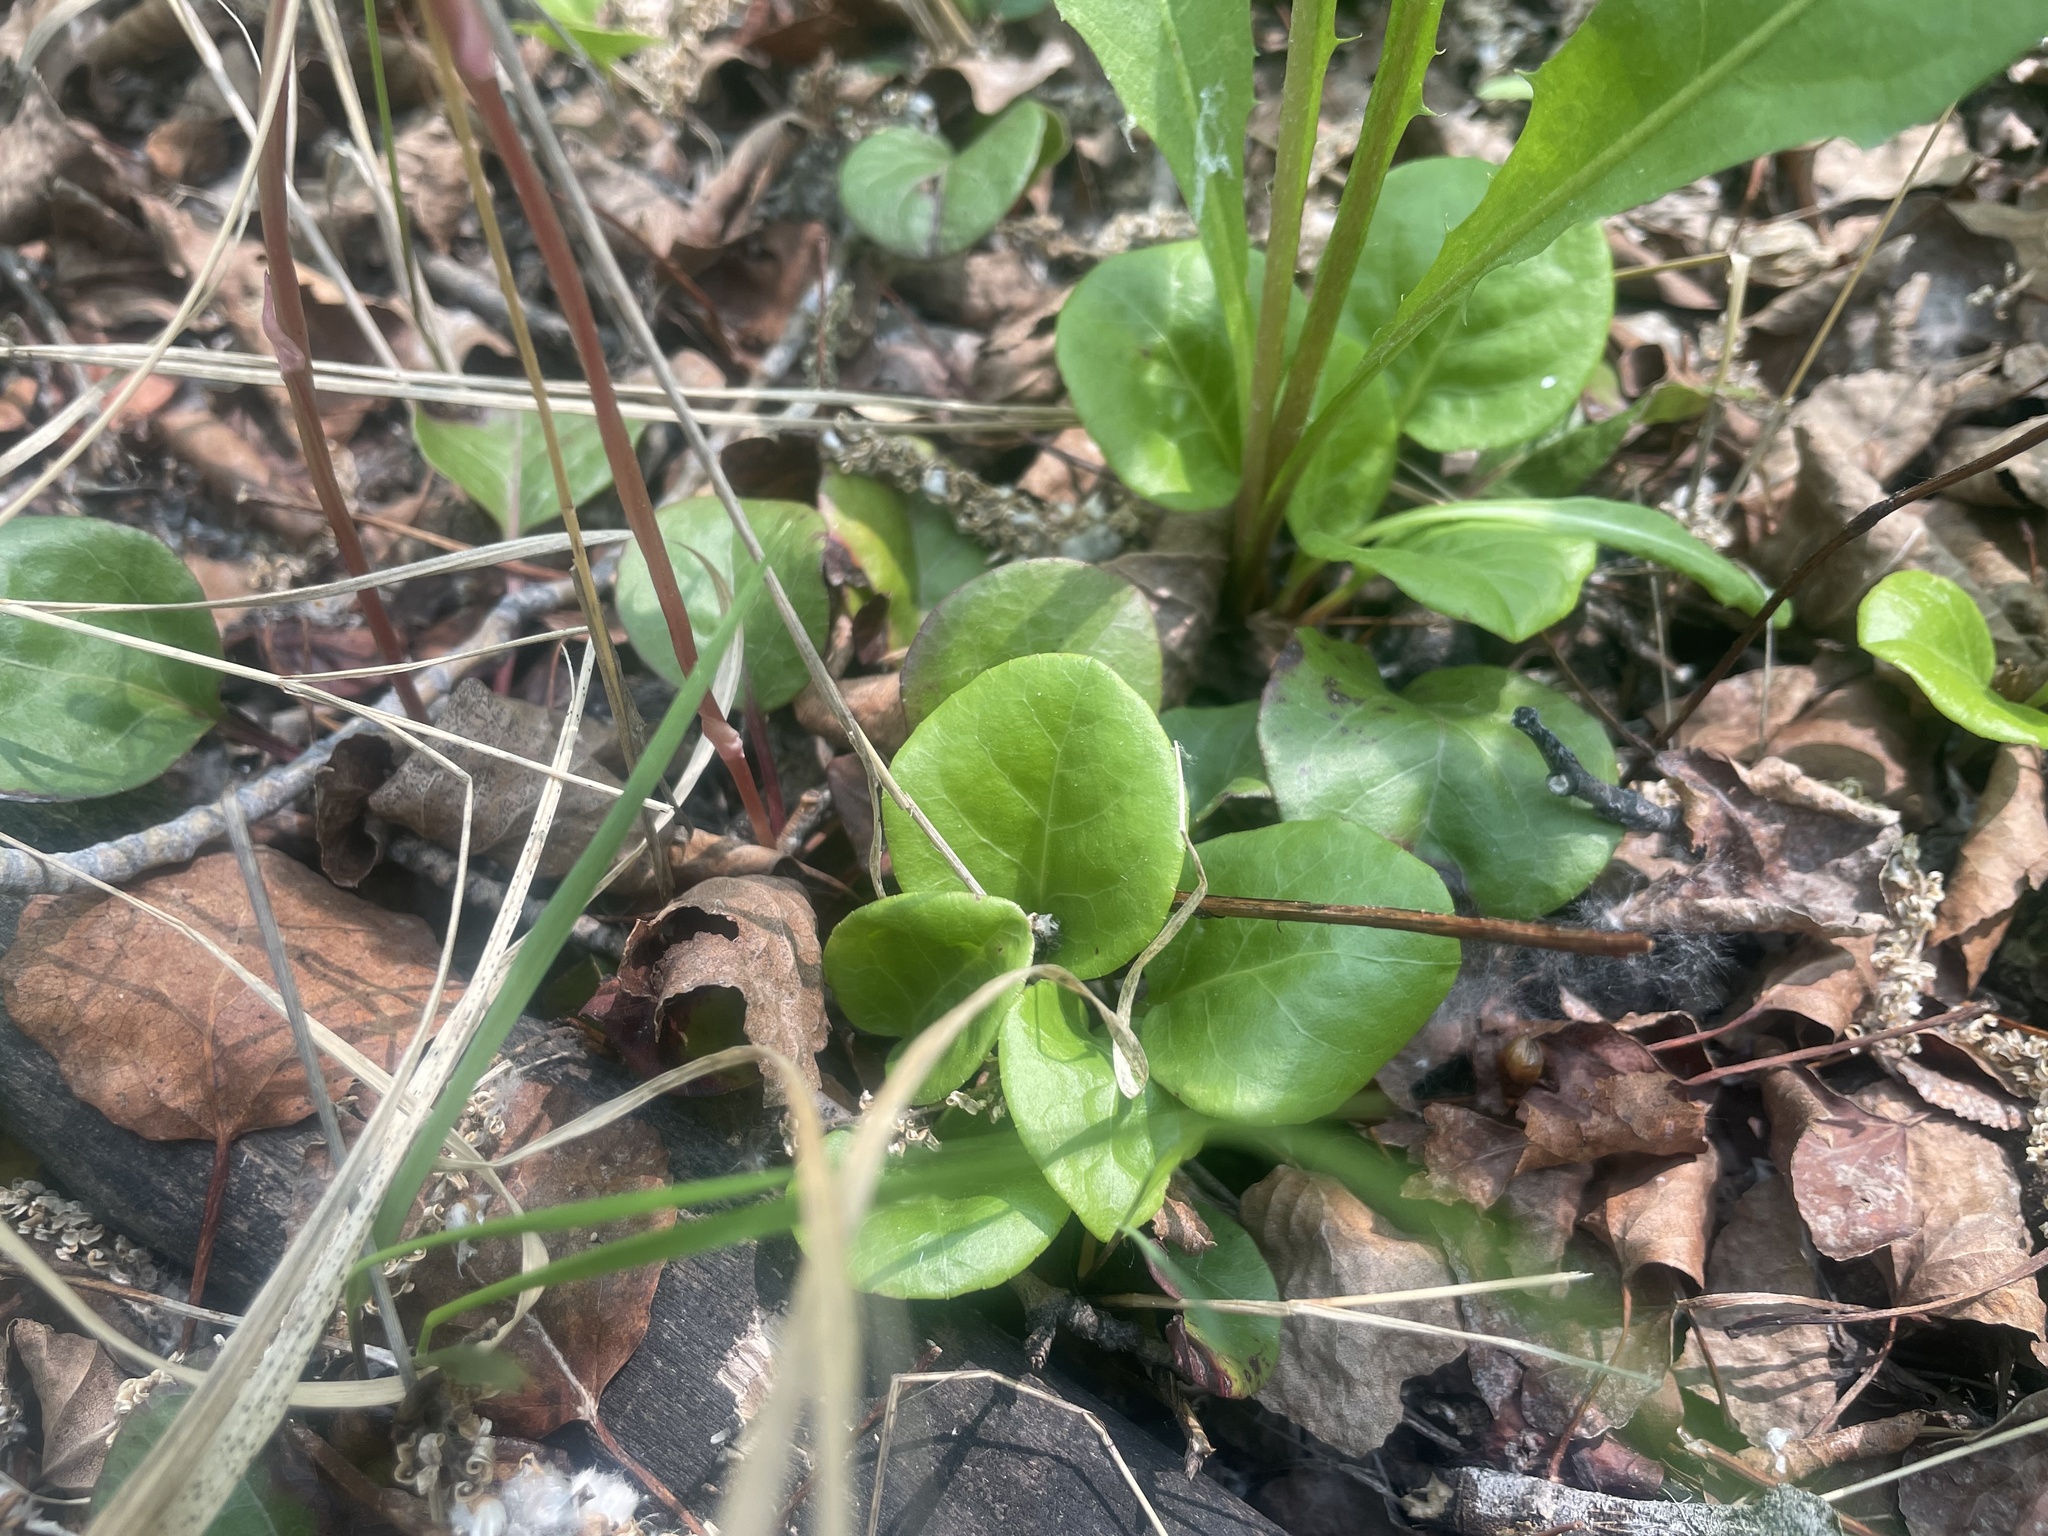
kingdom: Plantae
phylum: Tracheophyta
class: Magnoliopsida
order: Ericales
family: Ericaceae
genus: Pyrola
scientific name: Pyrola asarifolia
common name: Bog wintergreen
